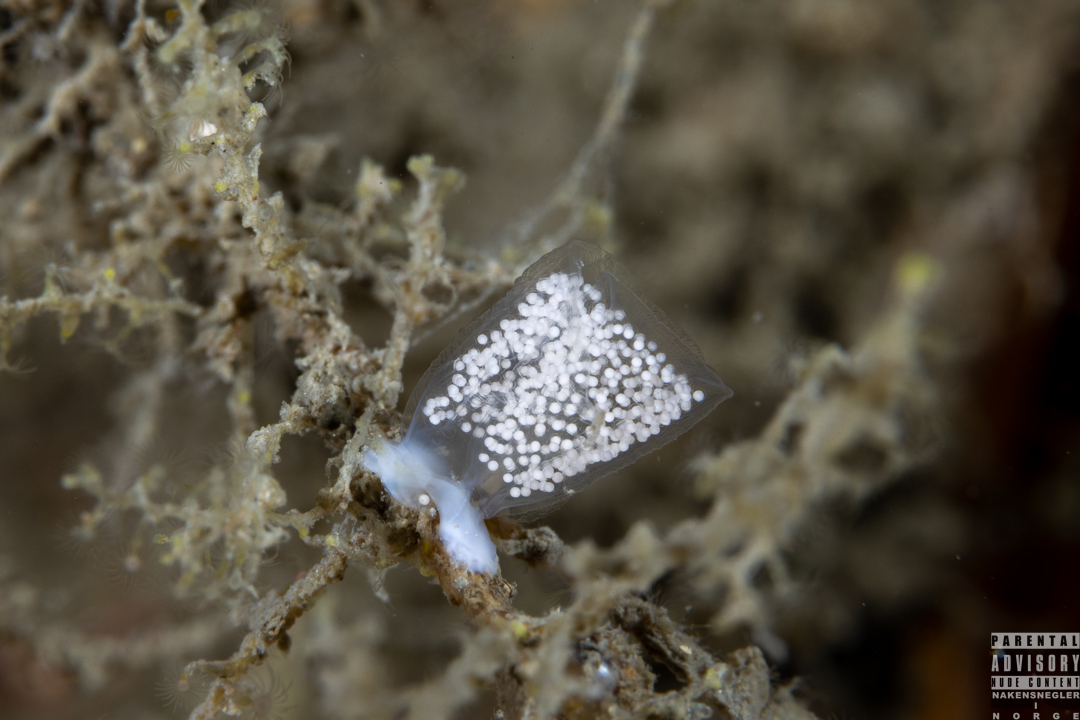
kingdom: Animalia
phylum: Mollusca
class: Gastropoda
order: Nudibranchia
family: Eubranchidae
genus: Eubranchus
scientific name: Eubranchus tricolor
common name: Painted balloon aeolis
